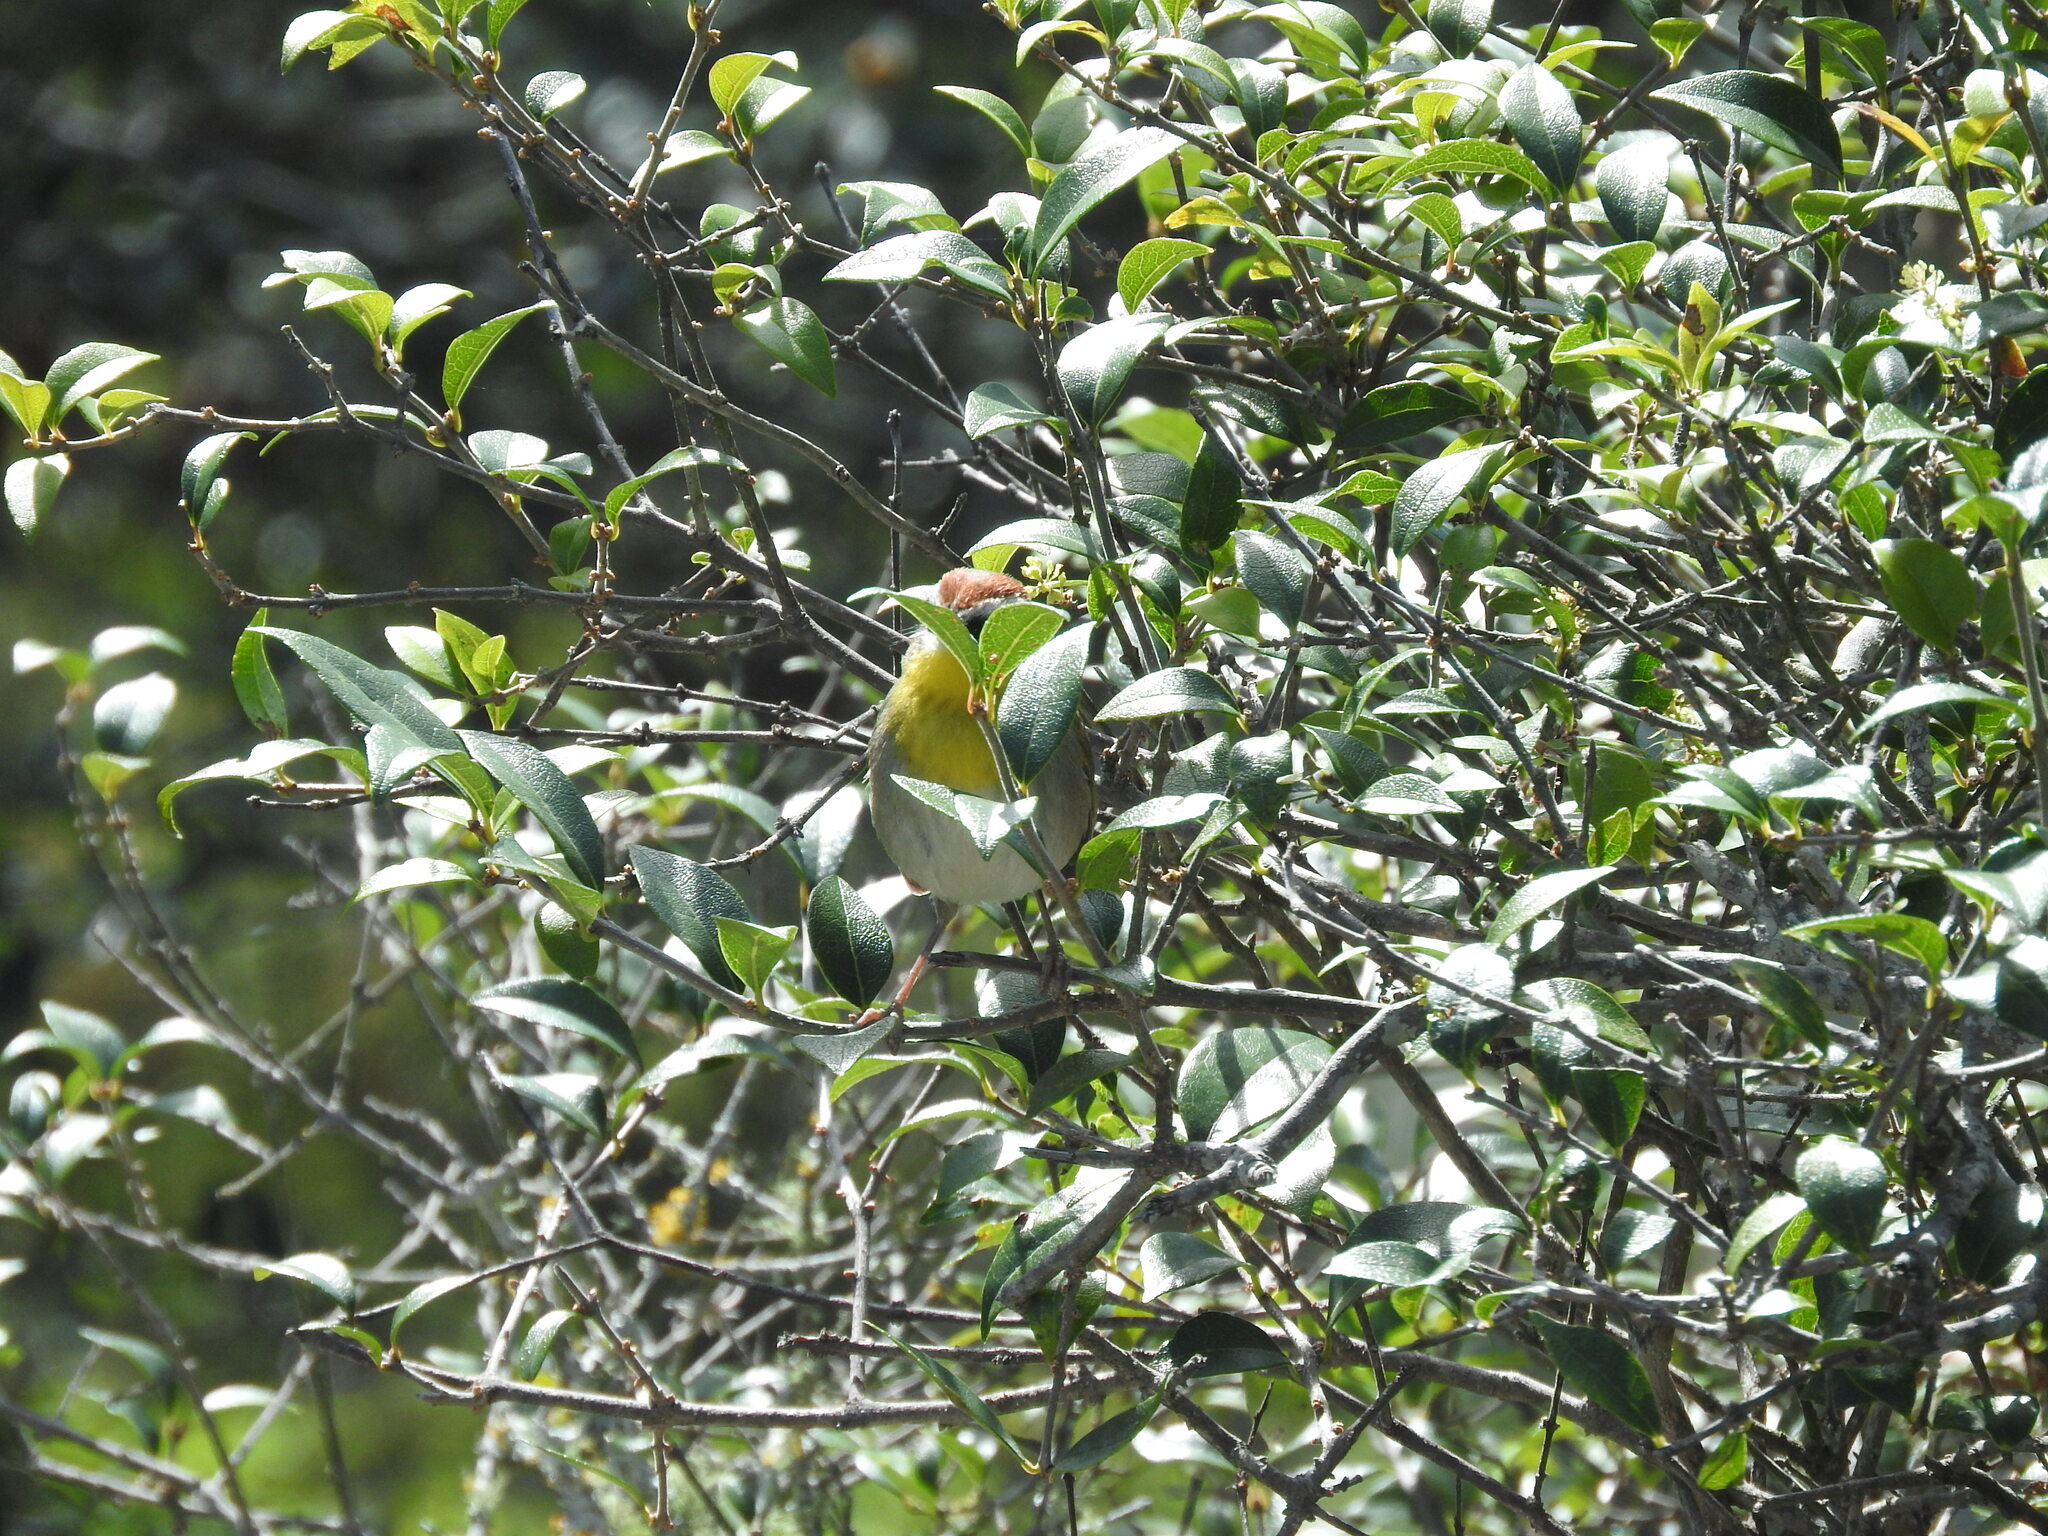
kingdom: Animalia
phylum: Chordata
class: Aves
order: Passeriformes
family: Parulidae
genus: Basileuterus
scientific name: Basileuterus rufifrons
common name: Rufous-capped warbler
